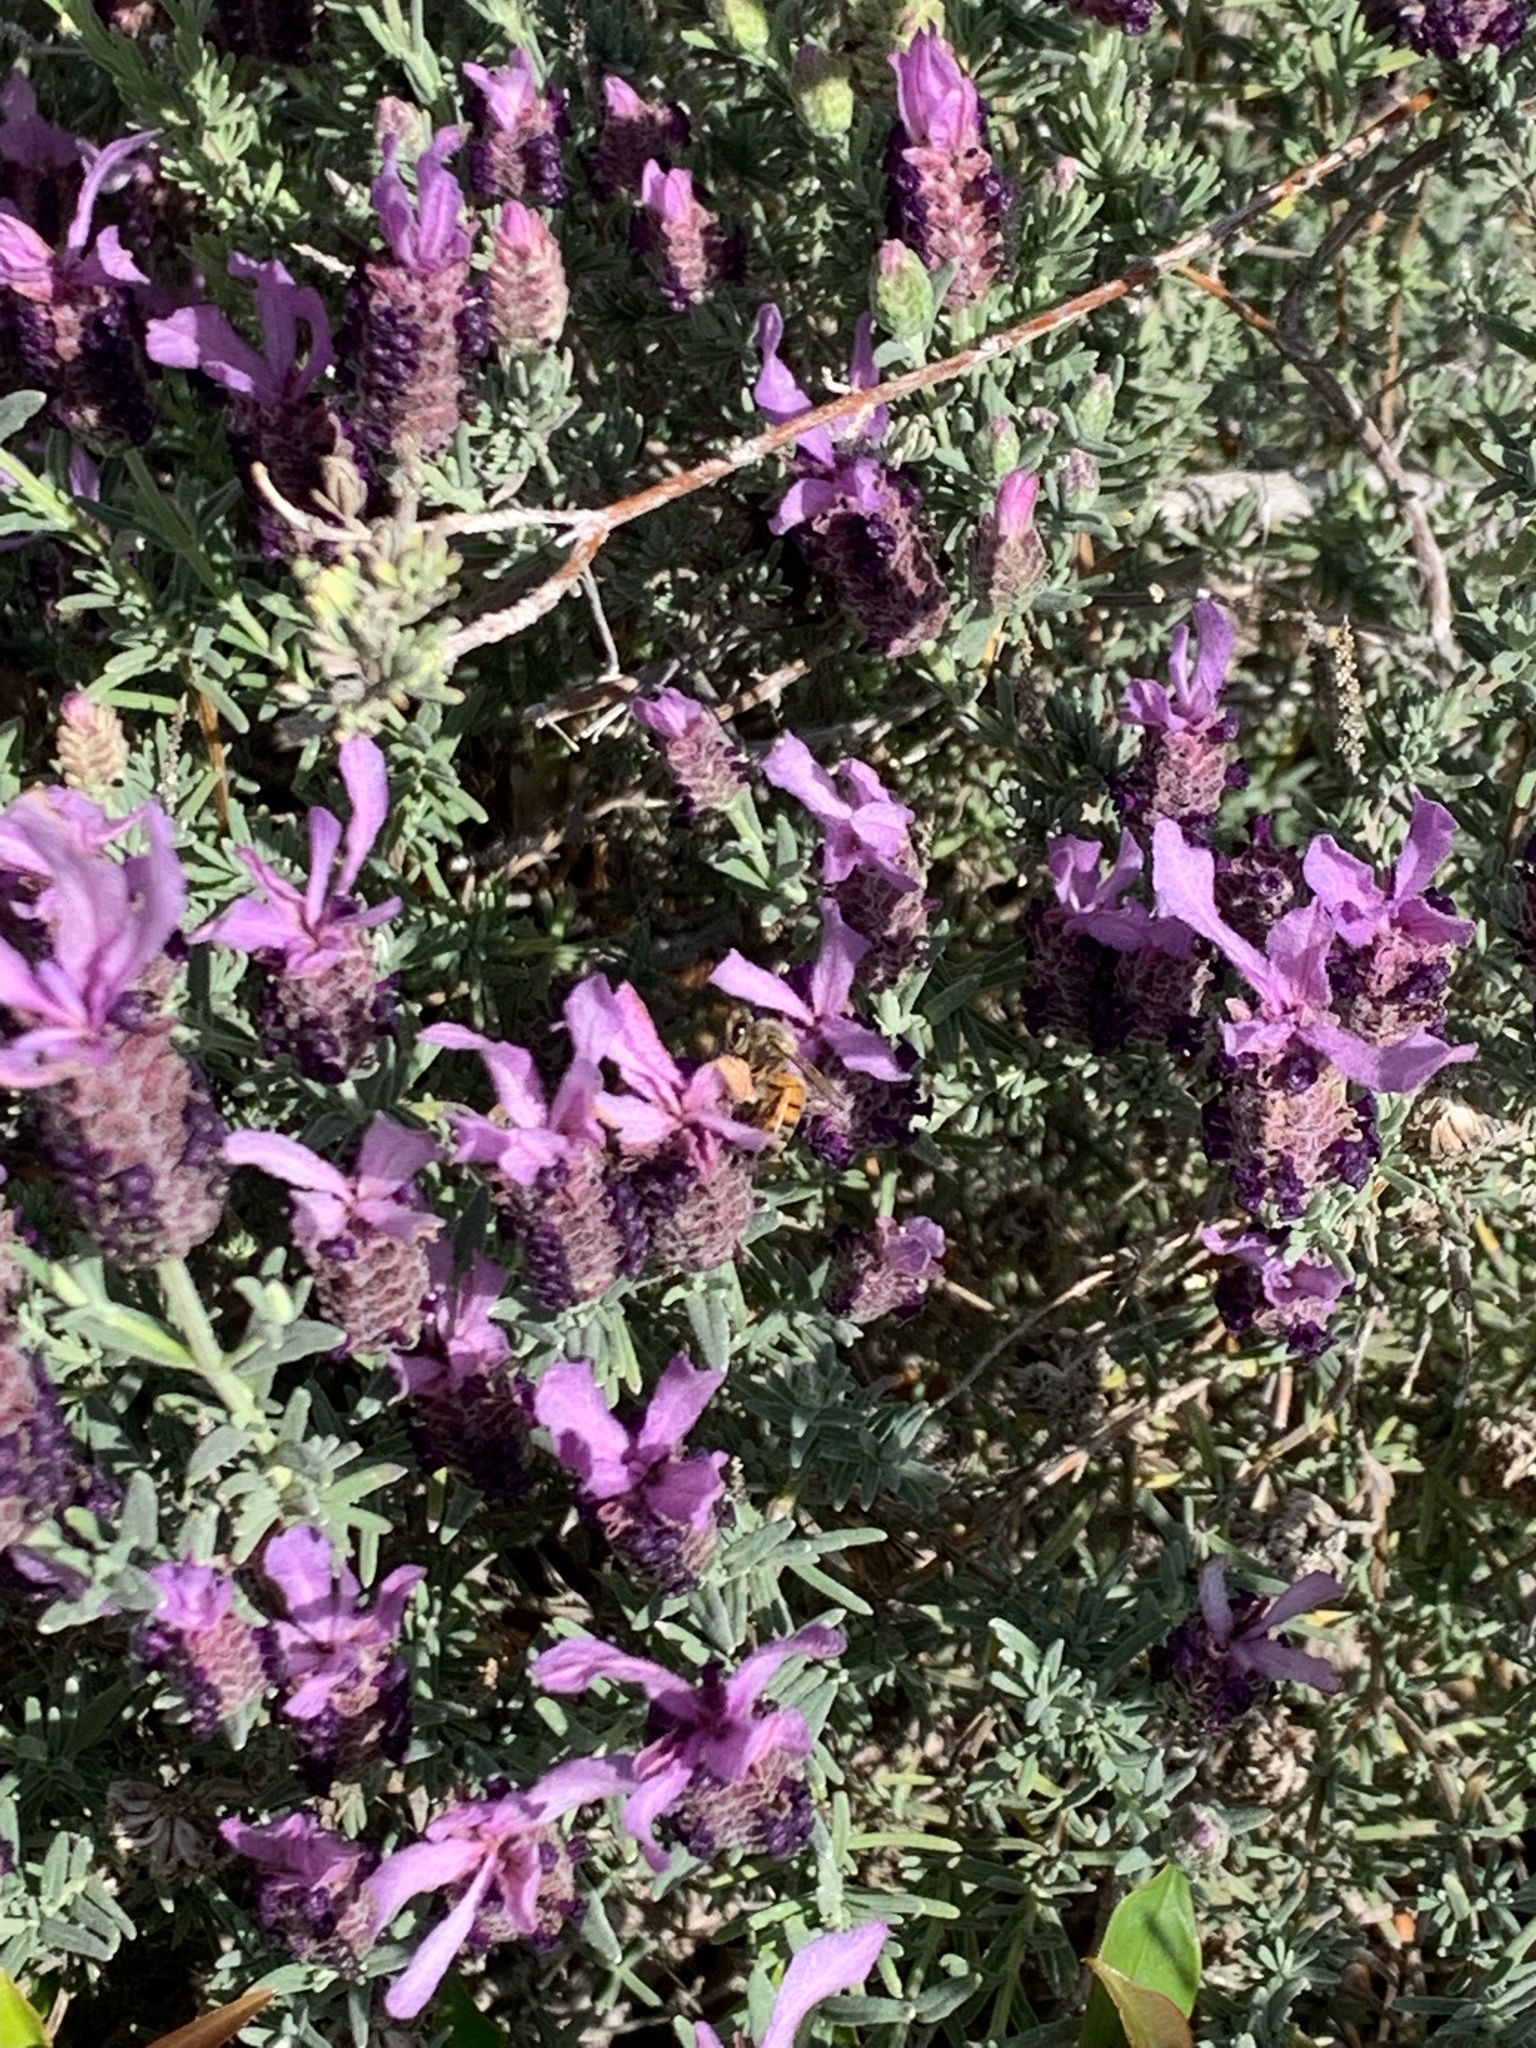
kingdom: Animalia
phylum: Arthropoda
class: Insecta
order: Hymenoptera
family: Apidae
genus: Apis
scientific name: Apis mellifera
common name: Honey bee
